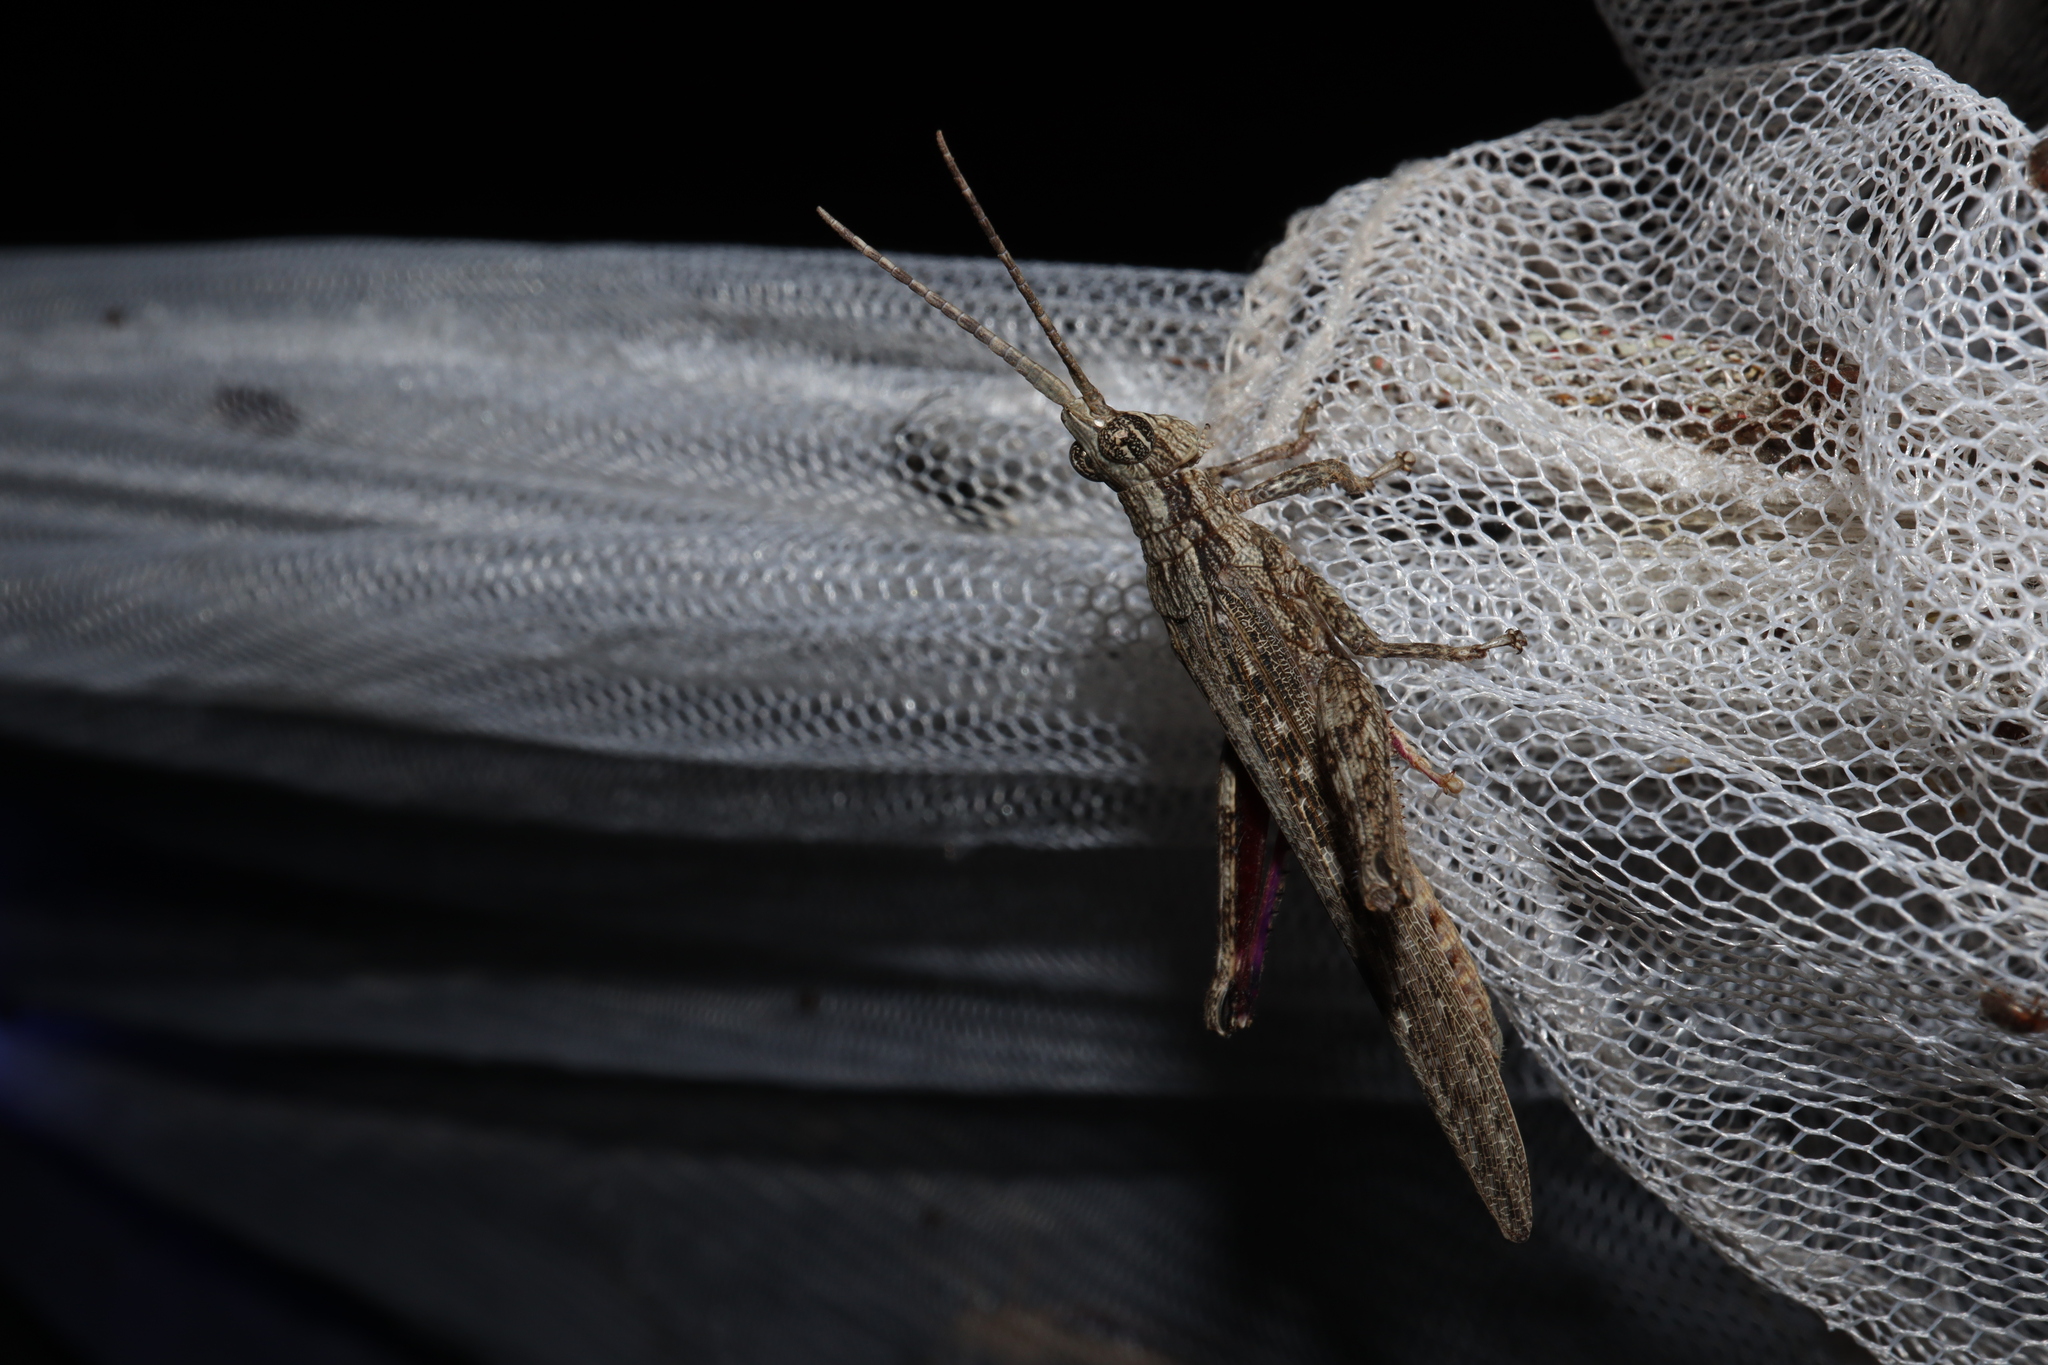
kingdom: Animalia
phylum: Arthropoda
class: Insecta
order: Orthoptera
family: Acrididae
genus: Coryphistes
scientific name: Coryphistes ruricola
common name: Bark-mimicking grasshopper
